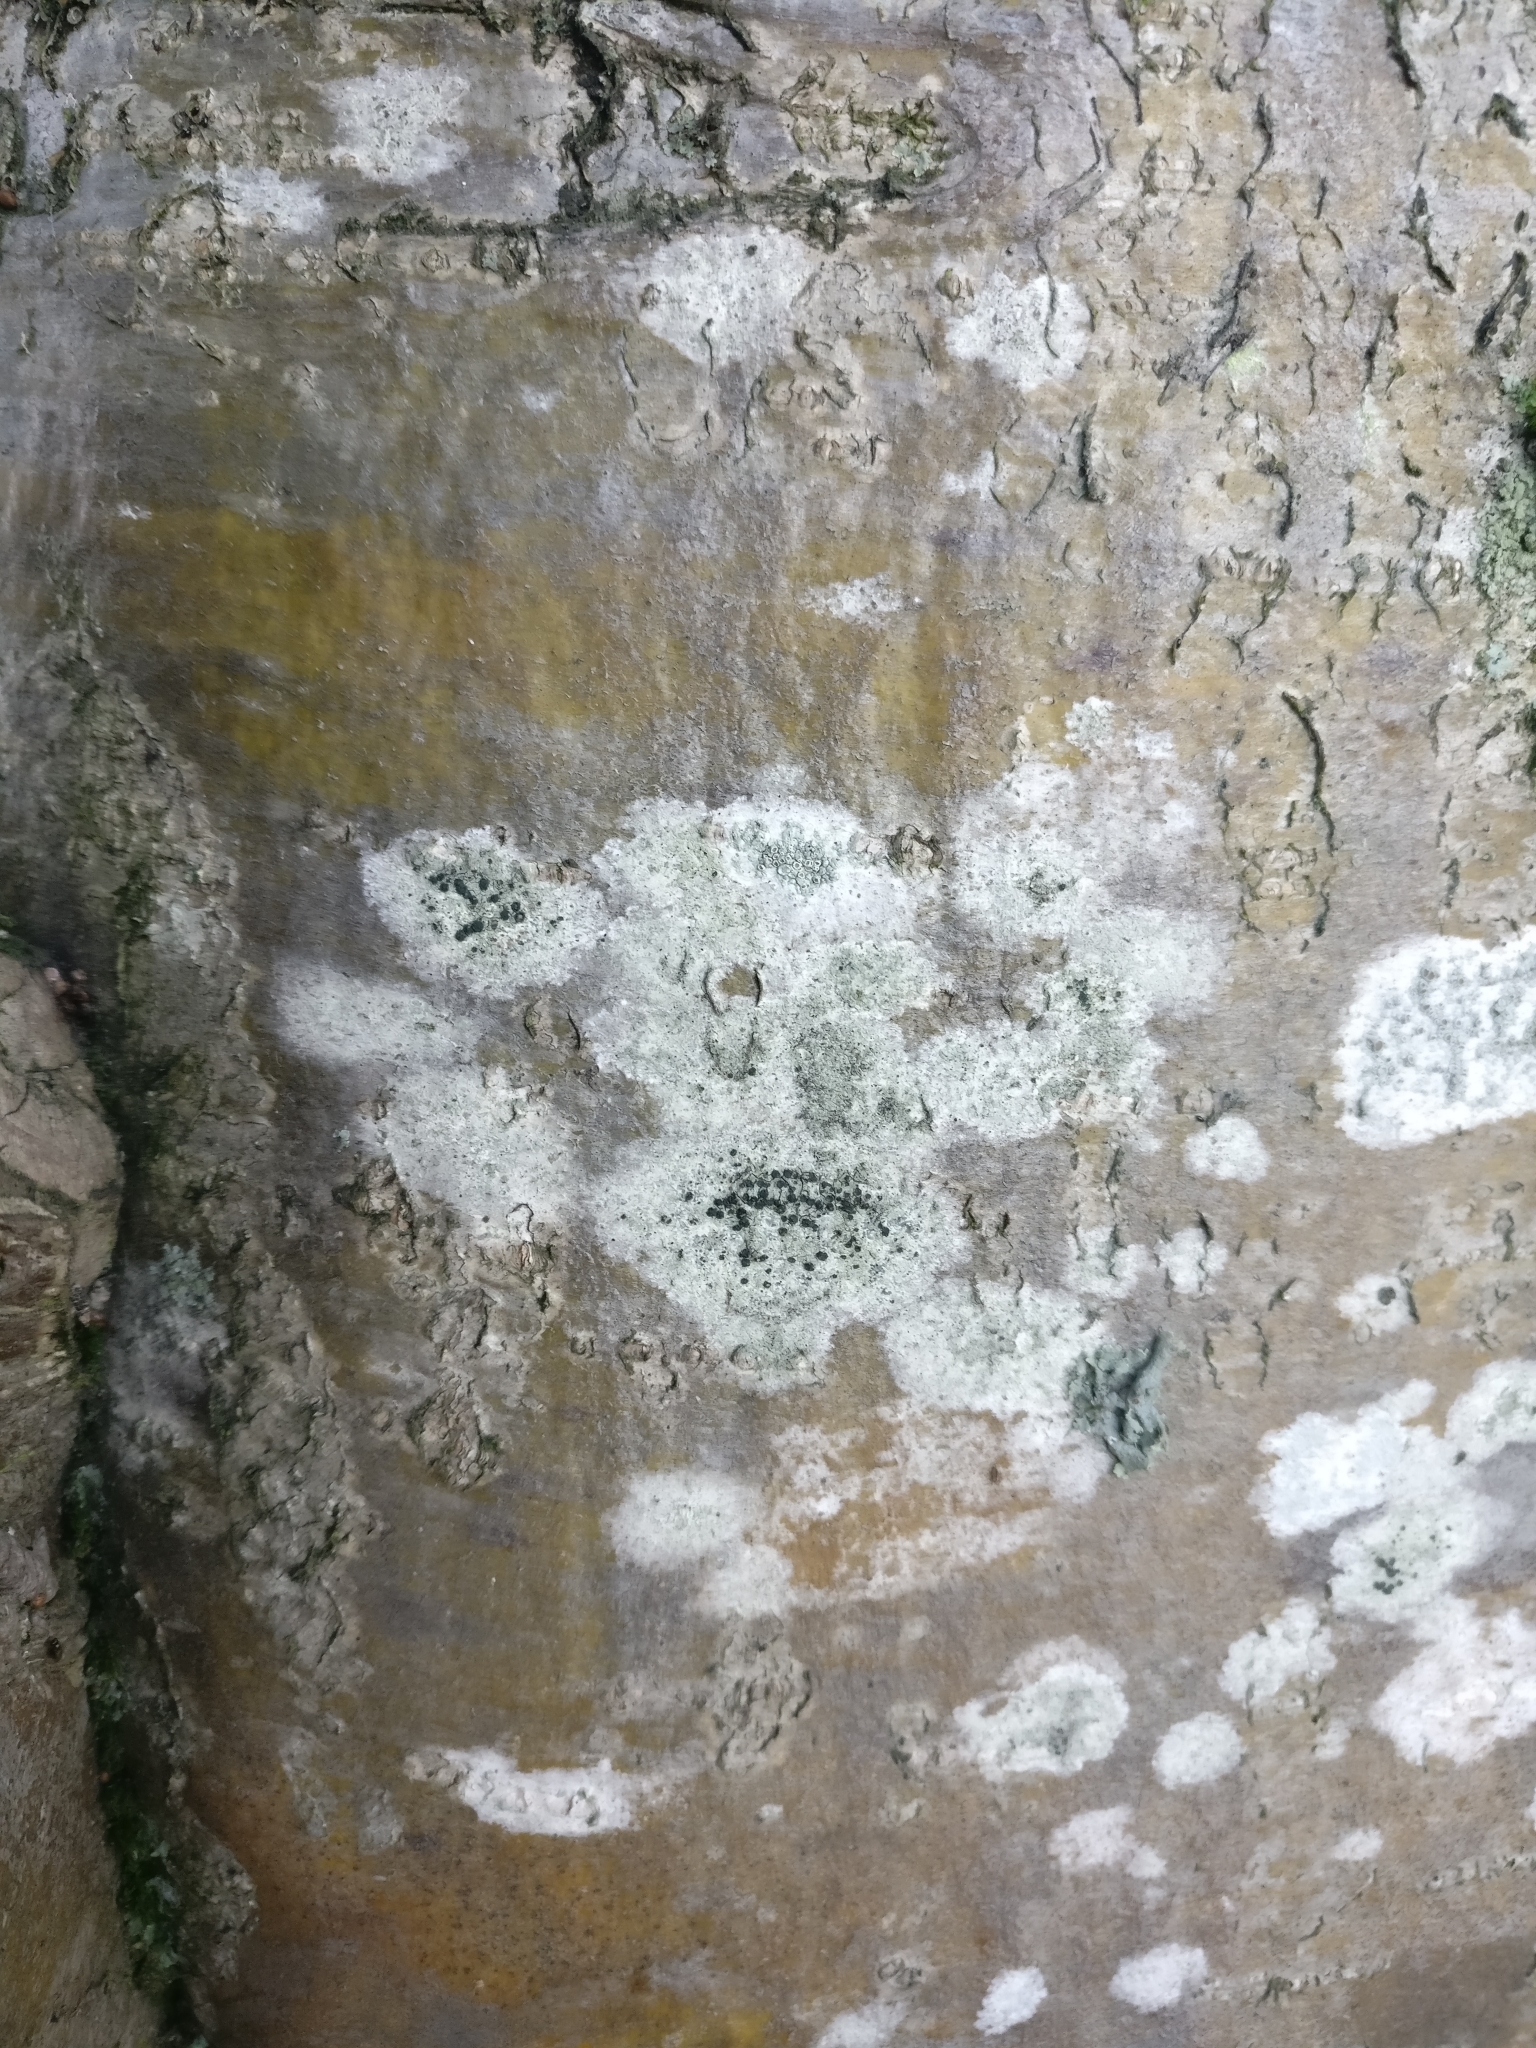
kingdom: Fungi
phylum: Ascomycota
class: Lecanoromycetes
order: Lecanorales
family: Lecanoraceae
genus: Lecidella
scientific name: Lecidella elaeochroma
